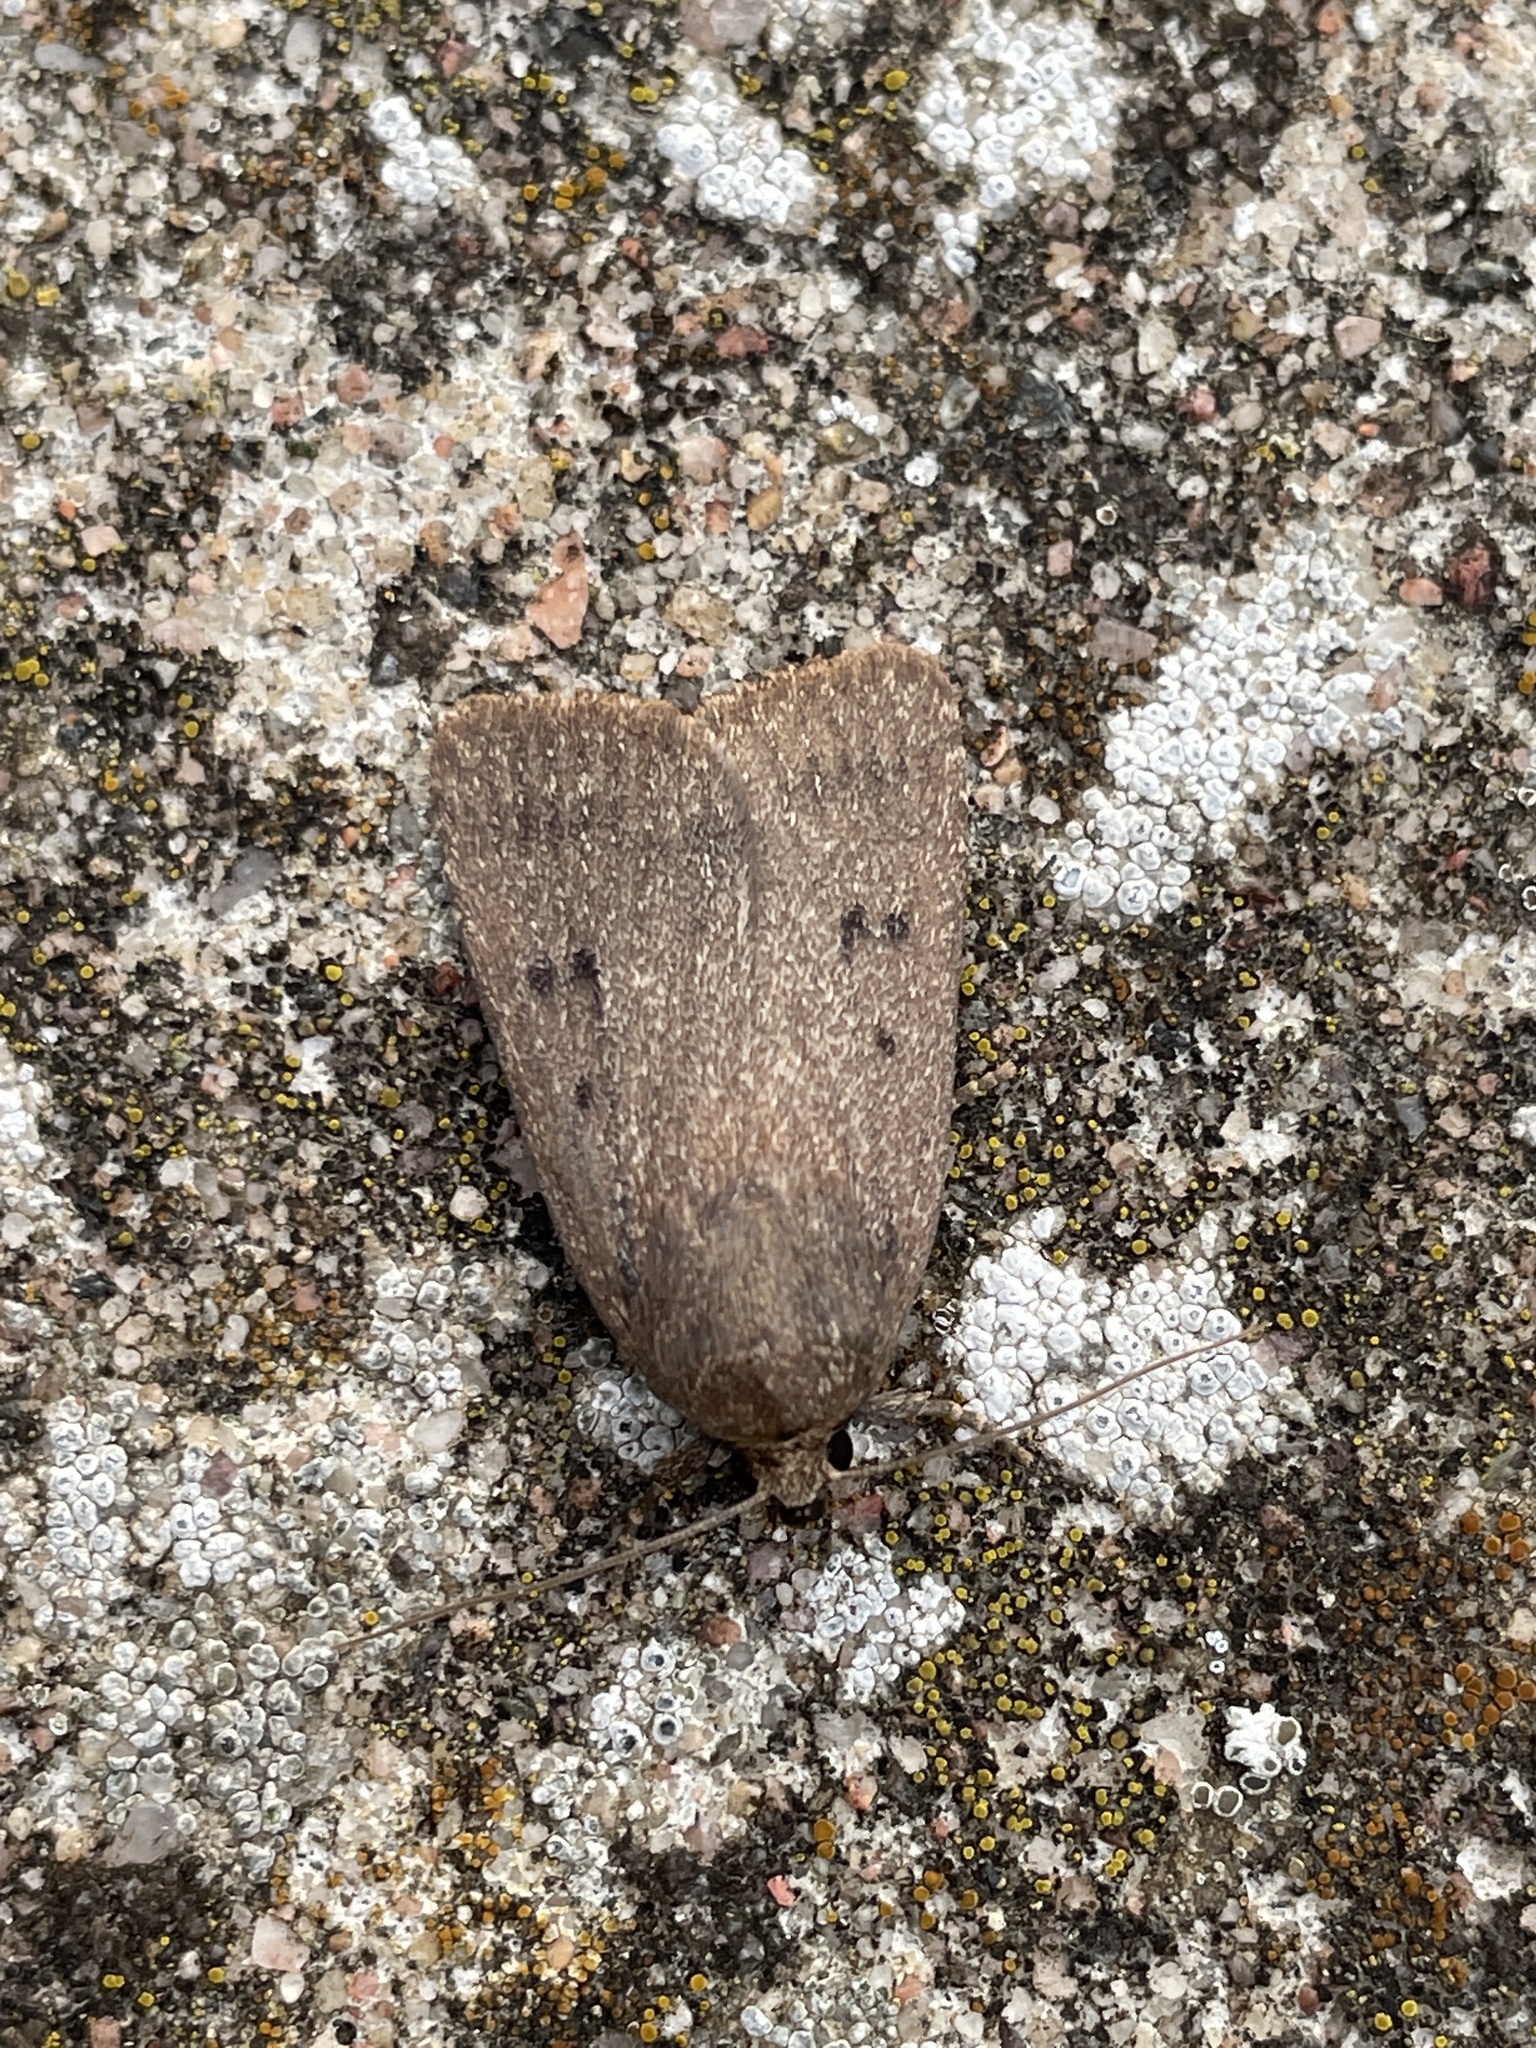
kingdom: Animalia
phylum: Arthropoda
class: Insecta
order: Lepidoptera
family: Noctuidae
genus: Amphipyra
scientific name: Amphipyra tragopoginis
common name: Mouse moth
